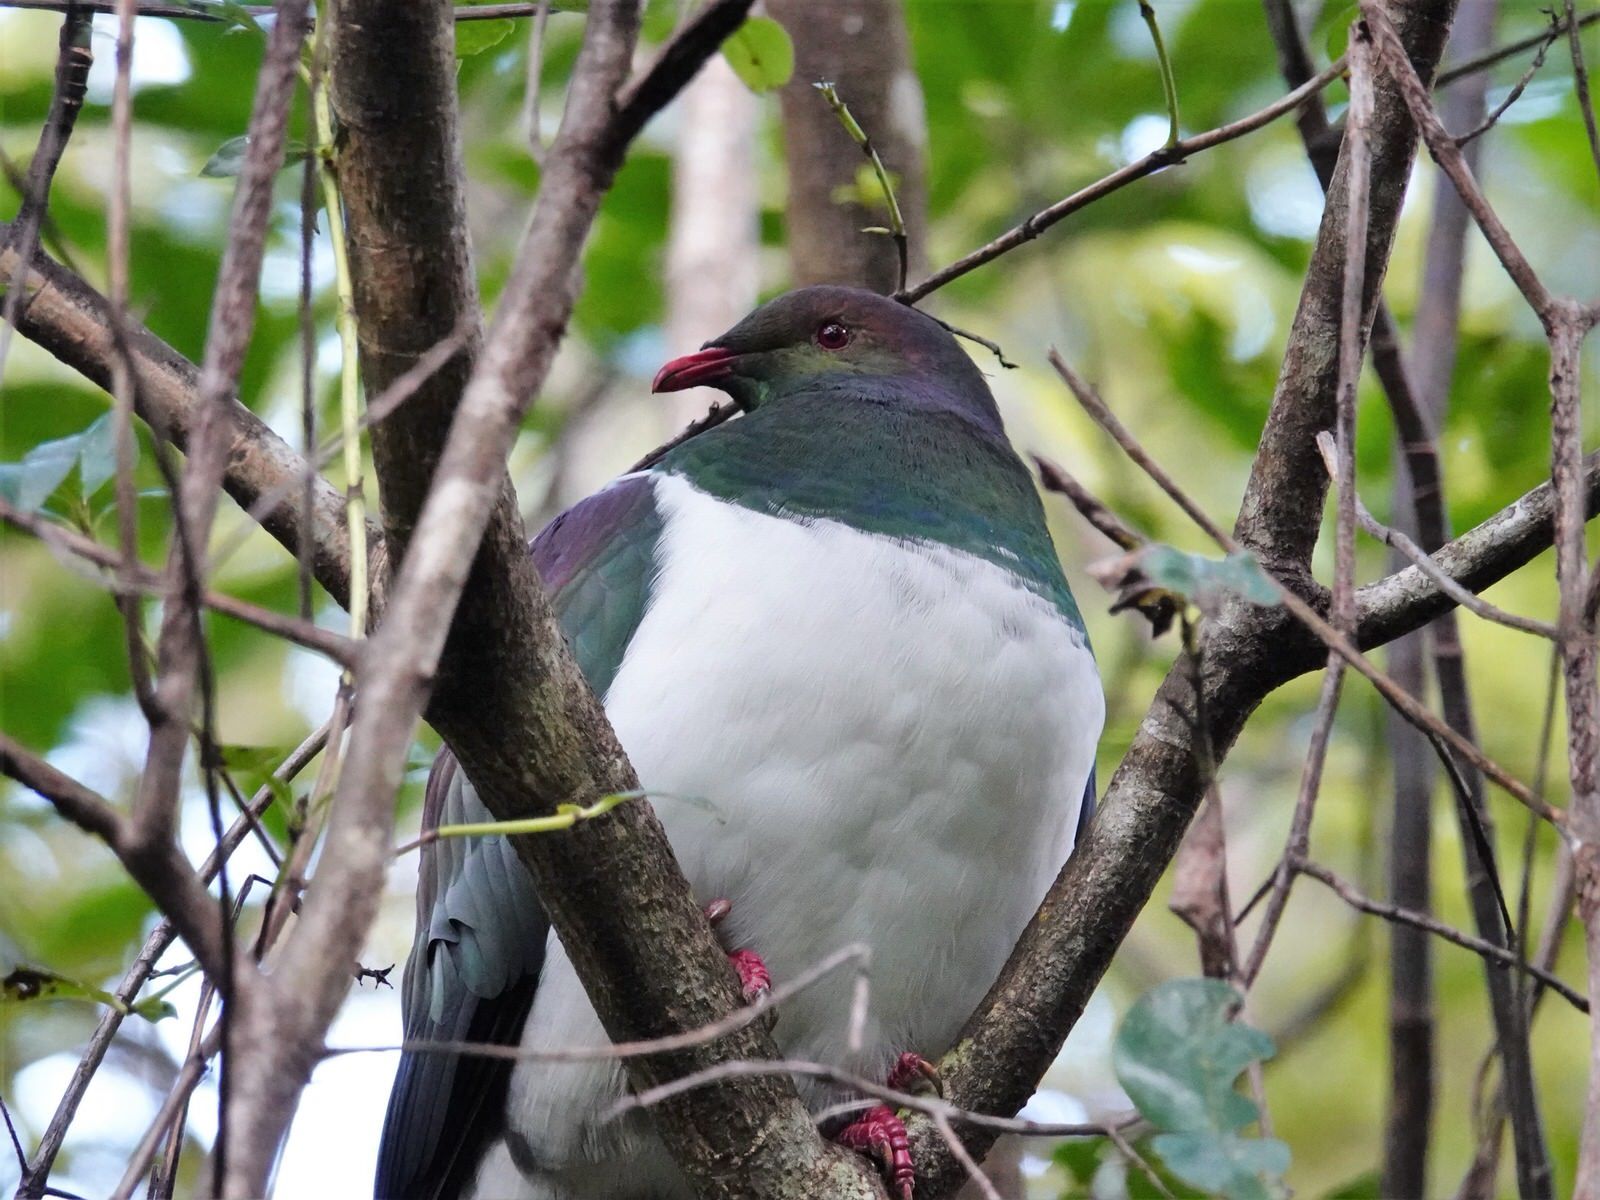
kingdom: Animalia
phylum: Chordata
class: Aves
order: Columbiformes
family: Columbidae
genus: Hemiphaga
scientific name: Hemiphaga novaeseelandiae
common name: New zealand pigeon
